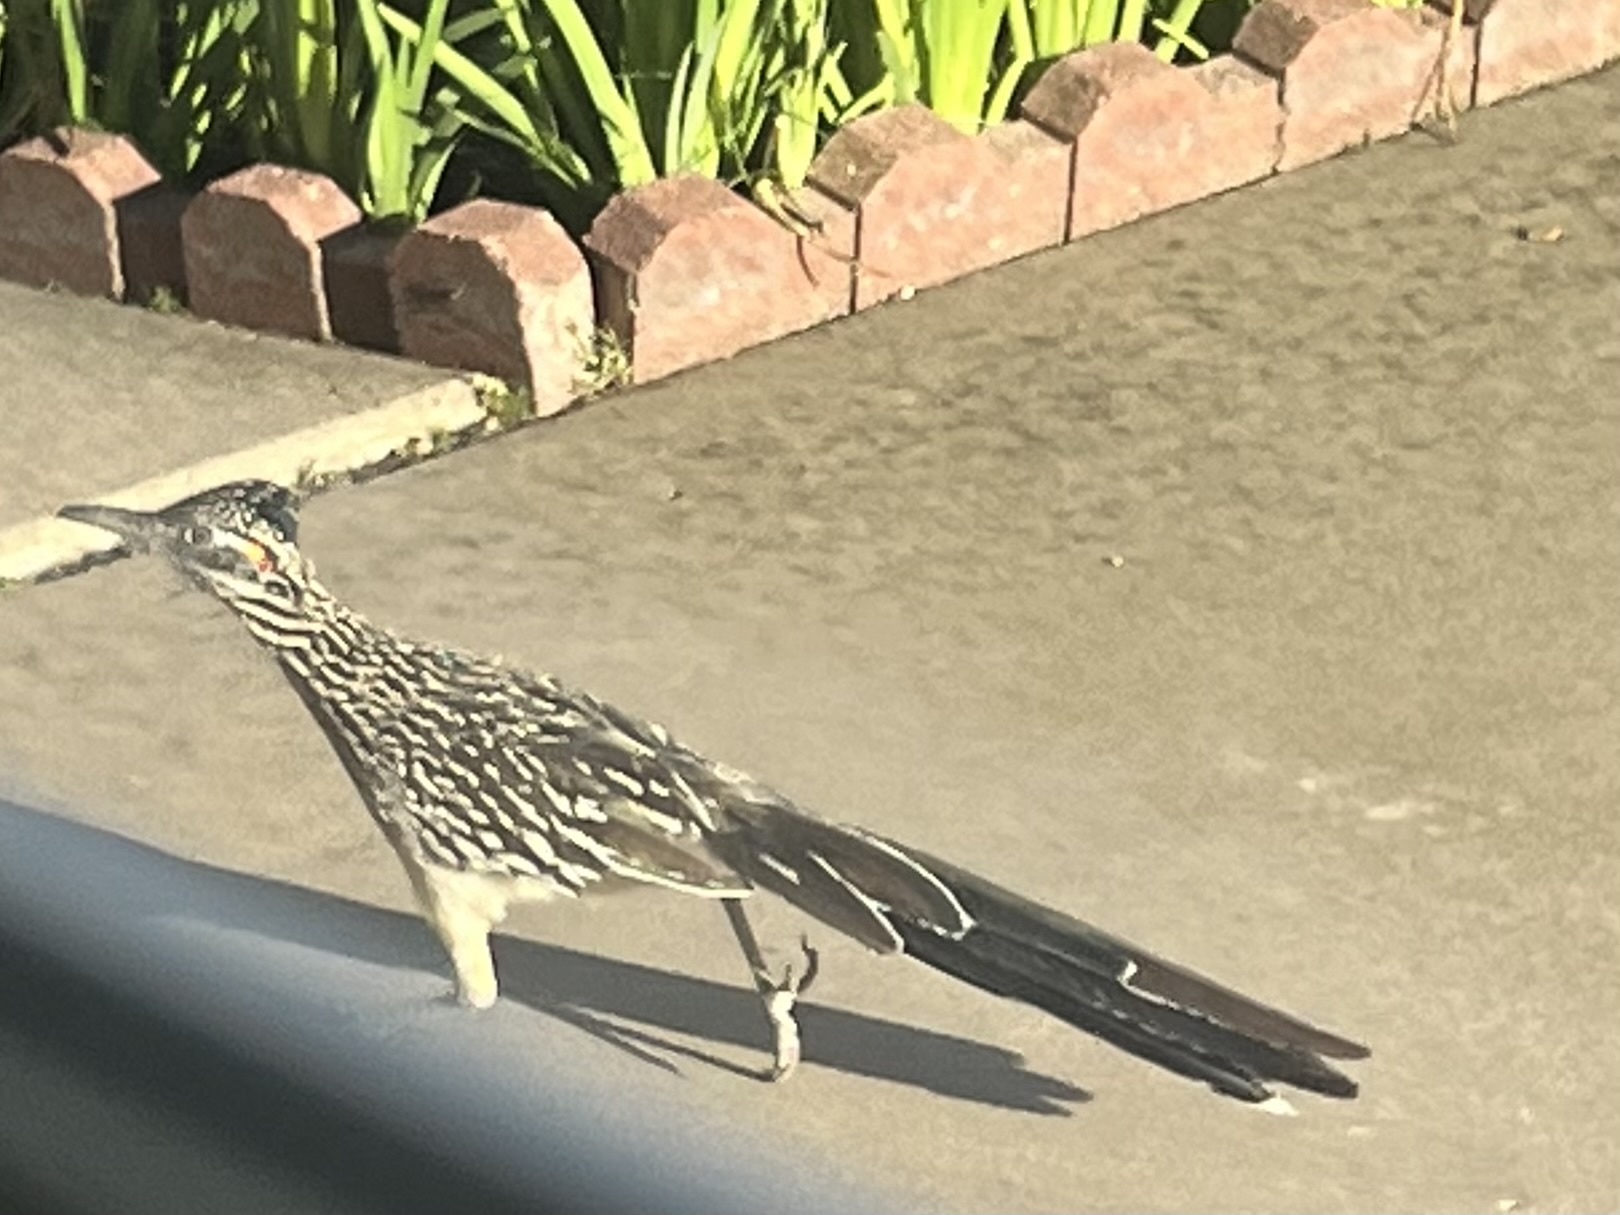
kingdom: Animalia
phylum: Chordata
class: Aves
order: Cuculiformes
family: Cuculidae
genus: Geococcyx
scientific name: Geococcyx californianus
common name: Greater roadrunner
